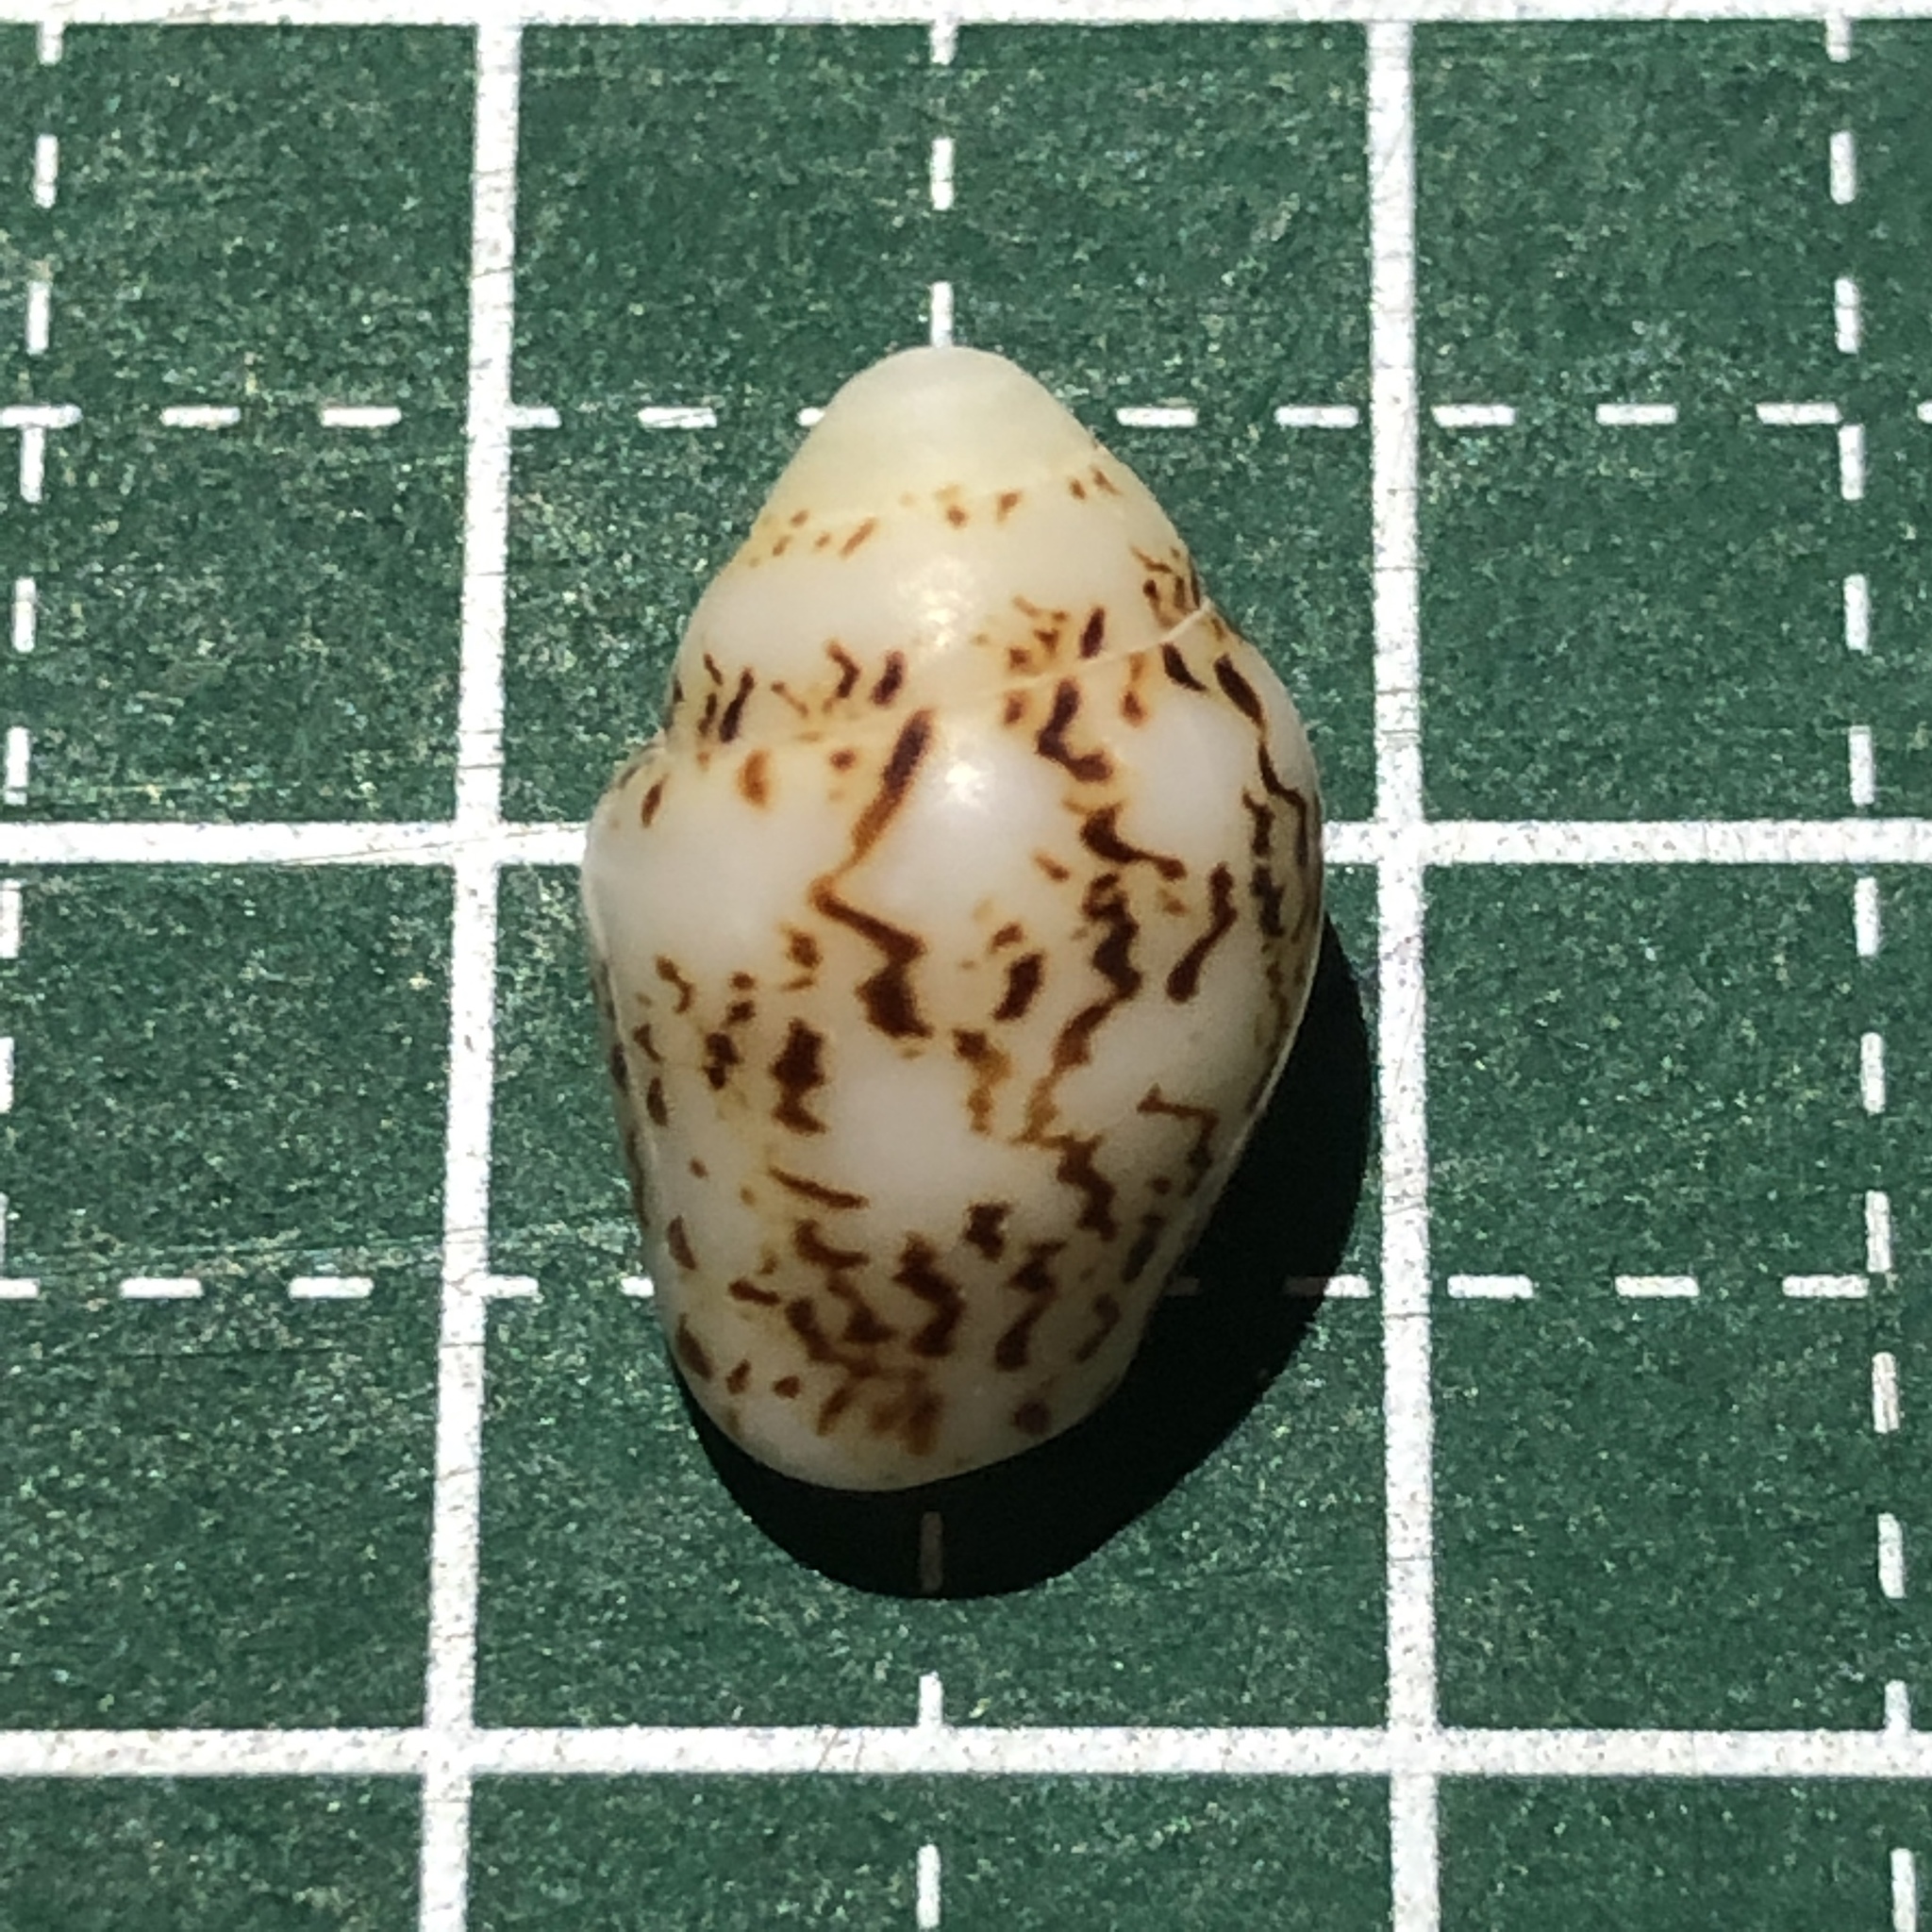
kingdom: Animalia
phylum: Mollusca
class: Gastropoda
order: Neogastropoda
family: Columbellidae
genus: Euplica
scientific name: Euplica scripta
